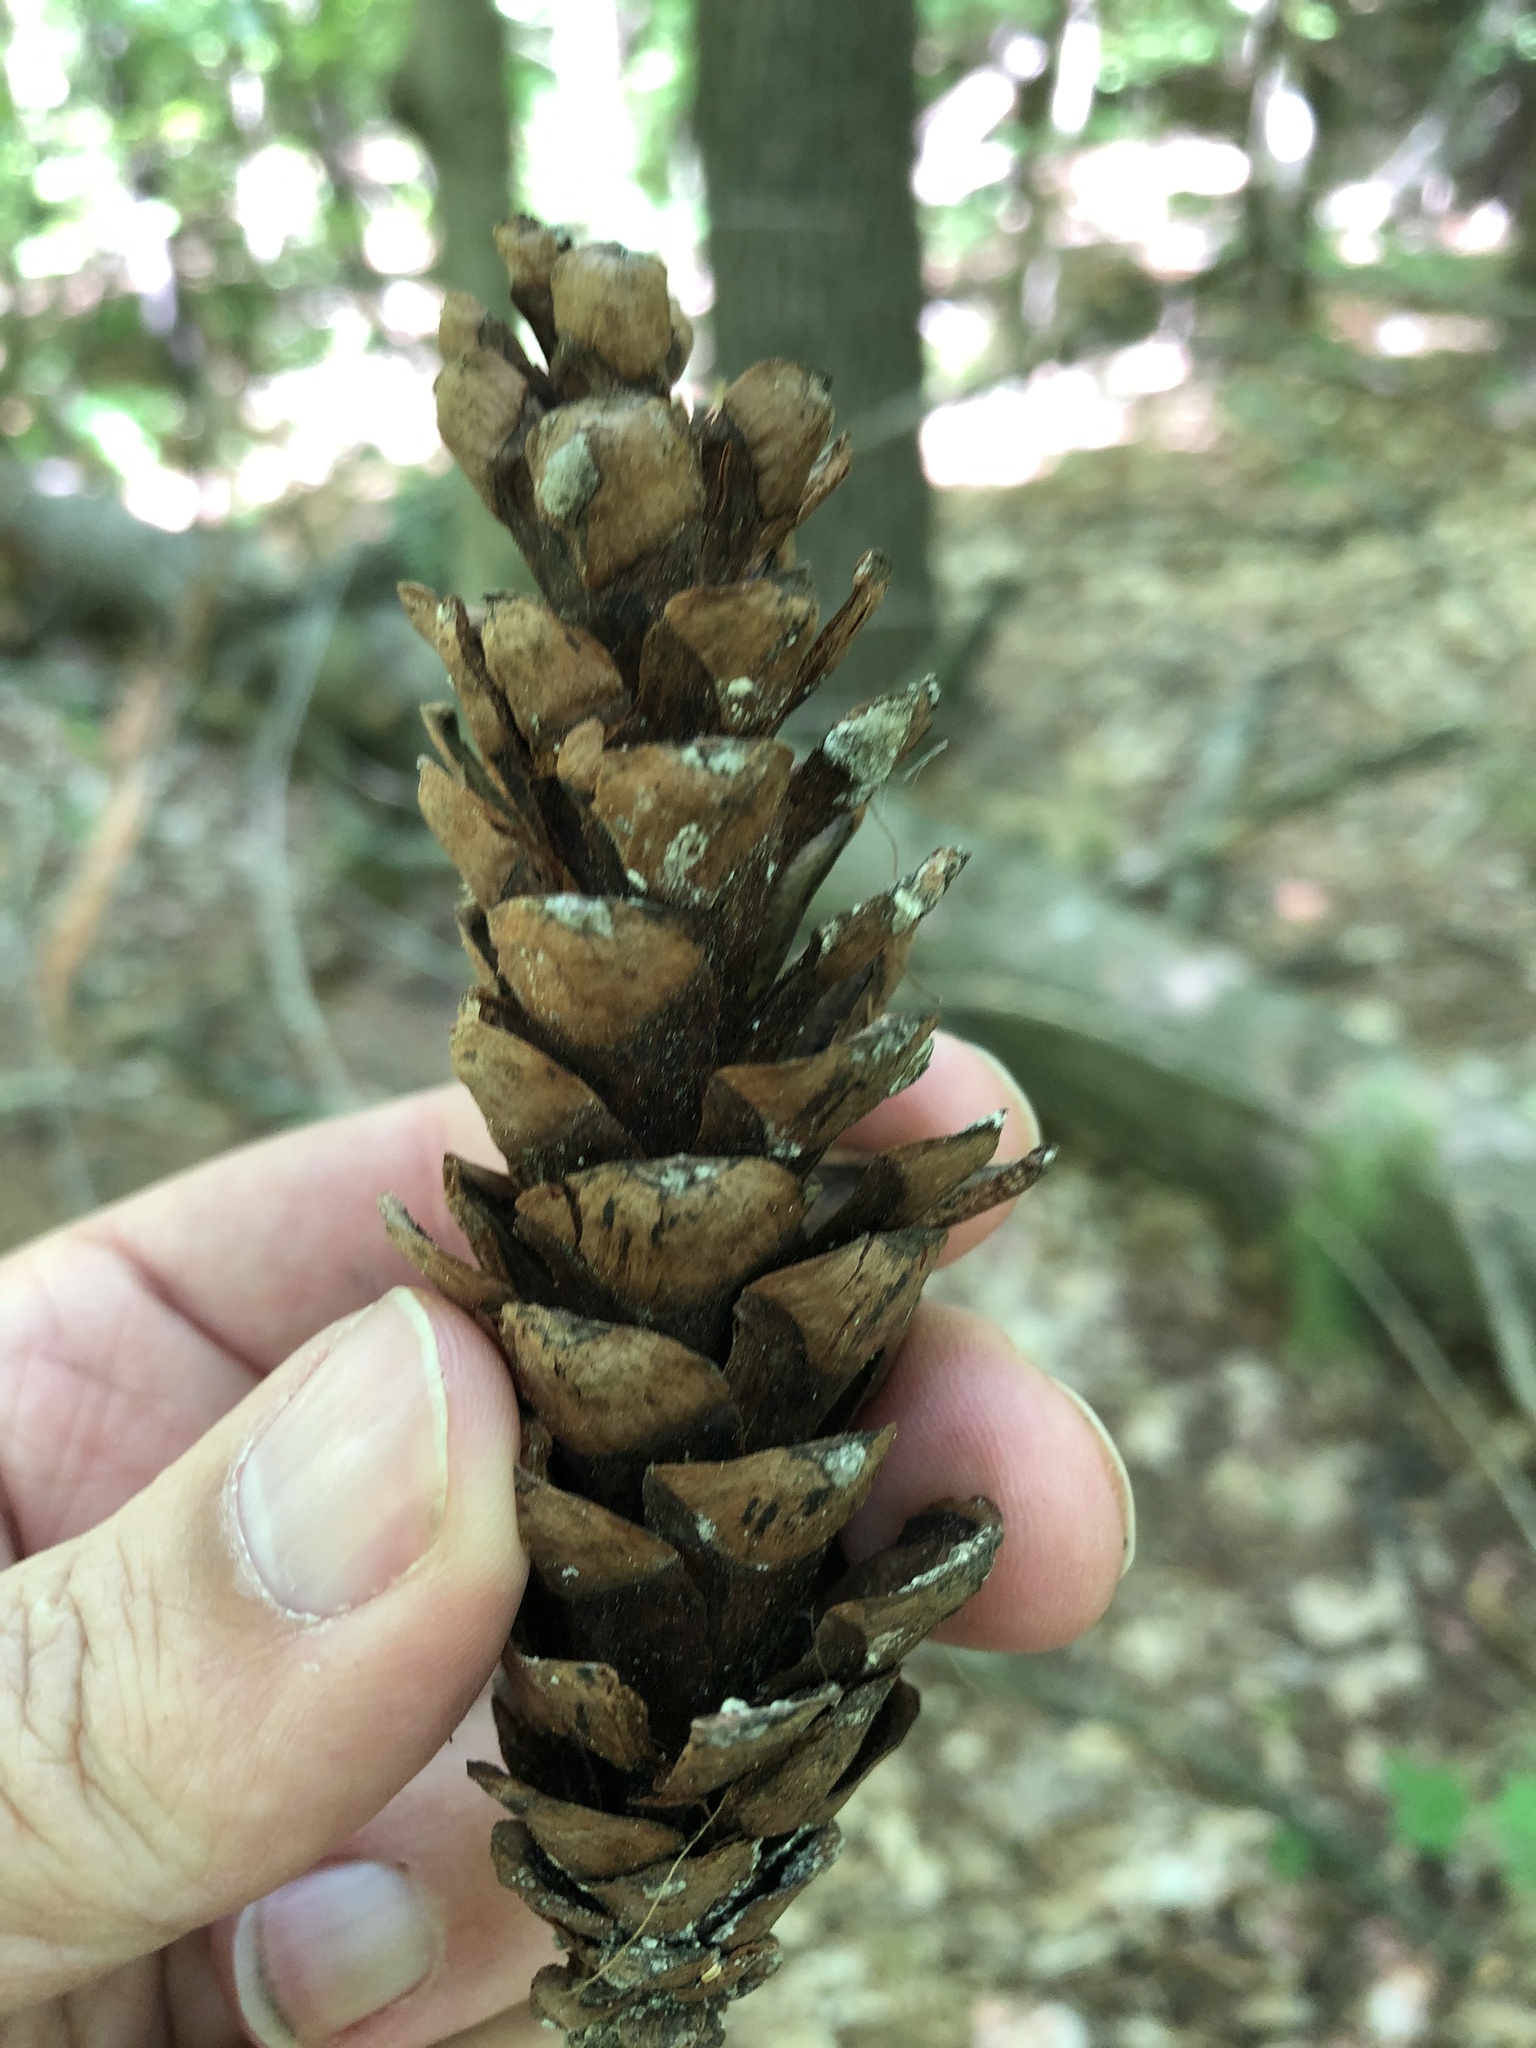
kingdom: Plantae
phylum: Tracheophyta
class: Pinopsida
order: Pinales
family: Pinaceae
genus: Pinus
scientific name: Pinus strobus
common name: Weymouth pine
